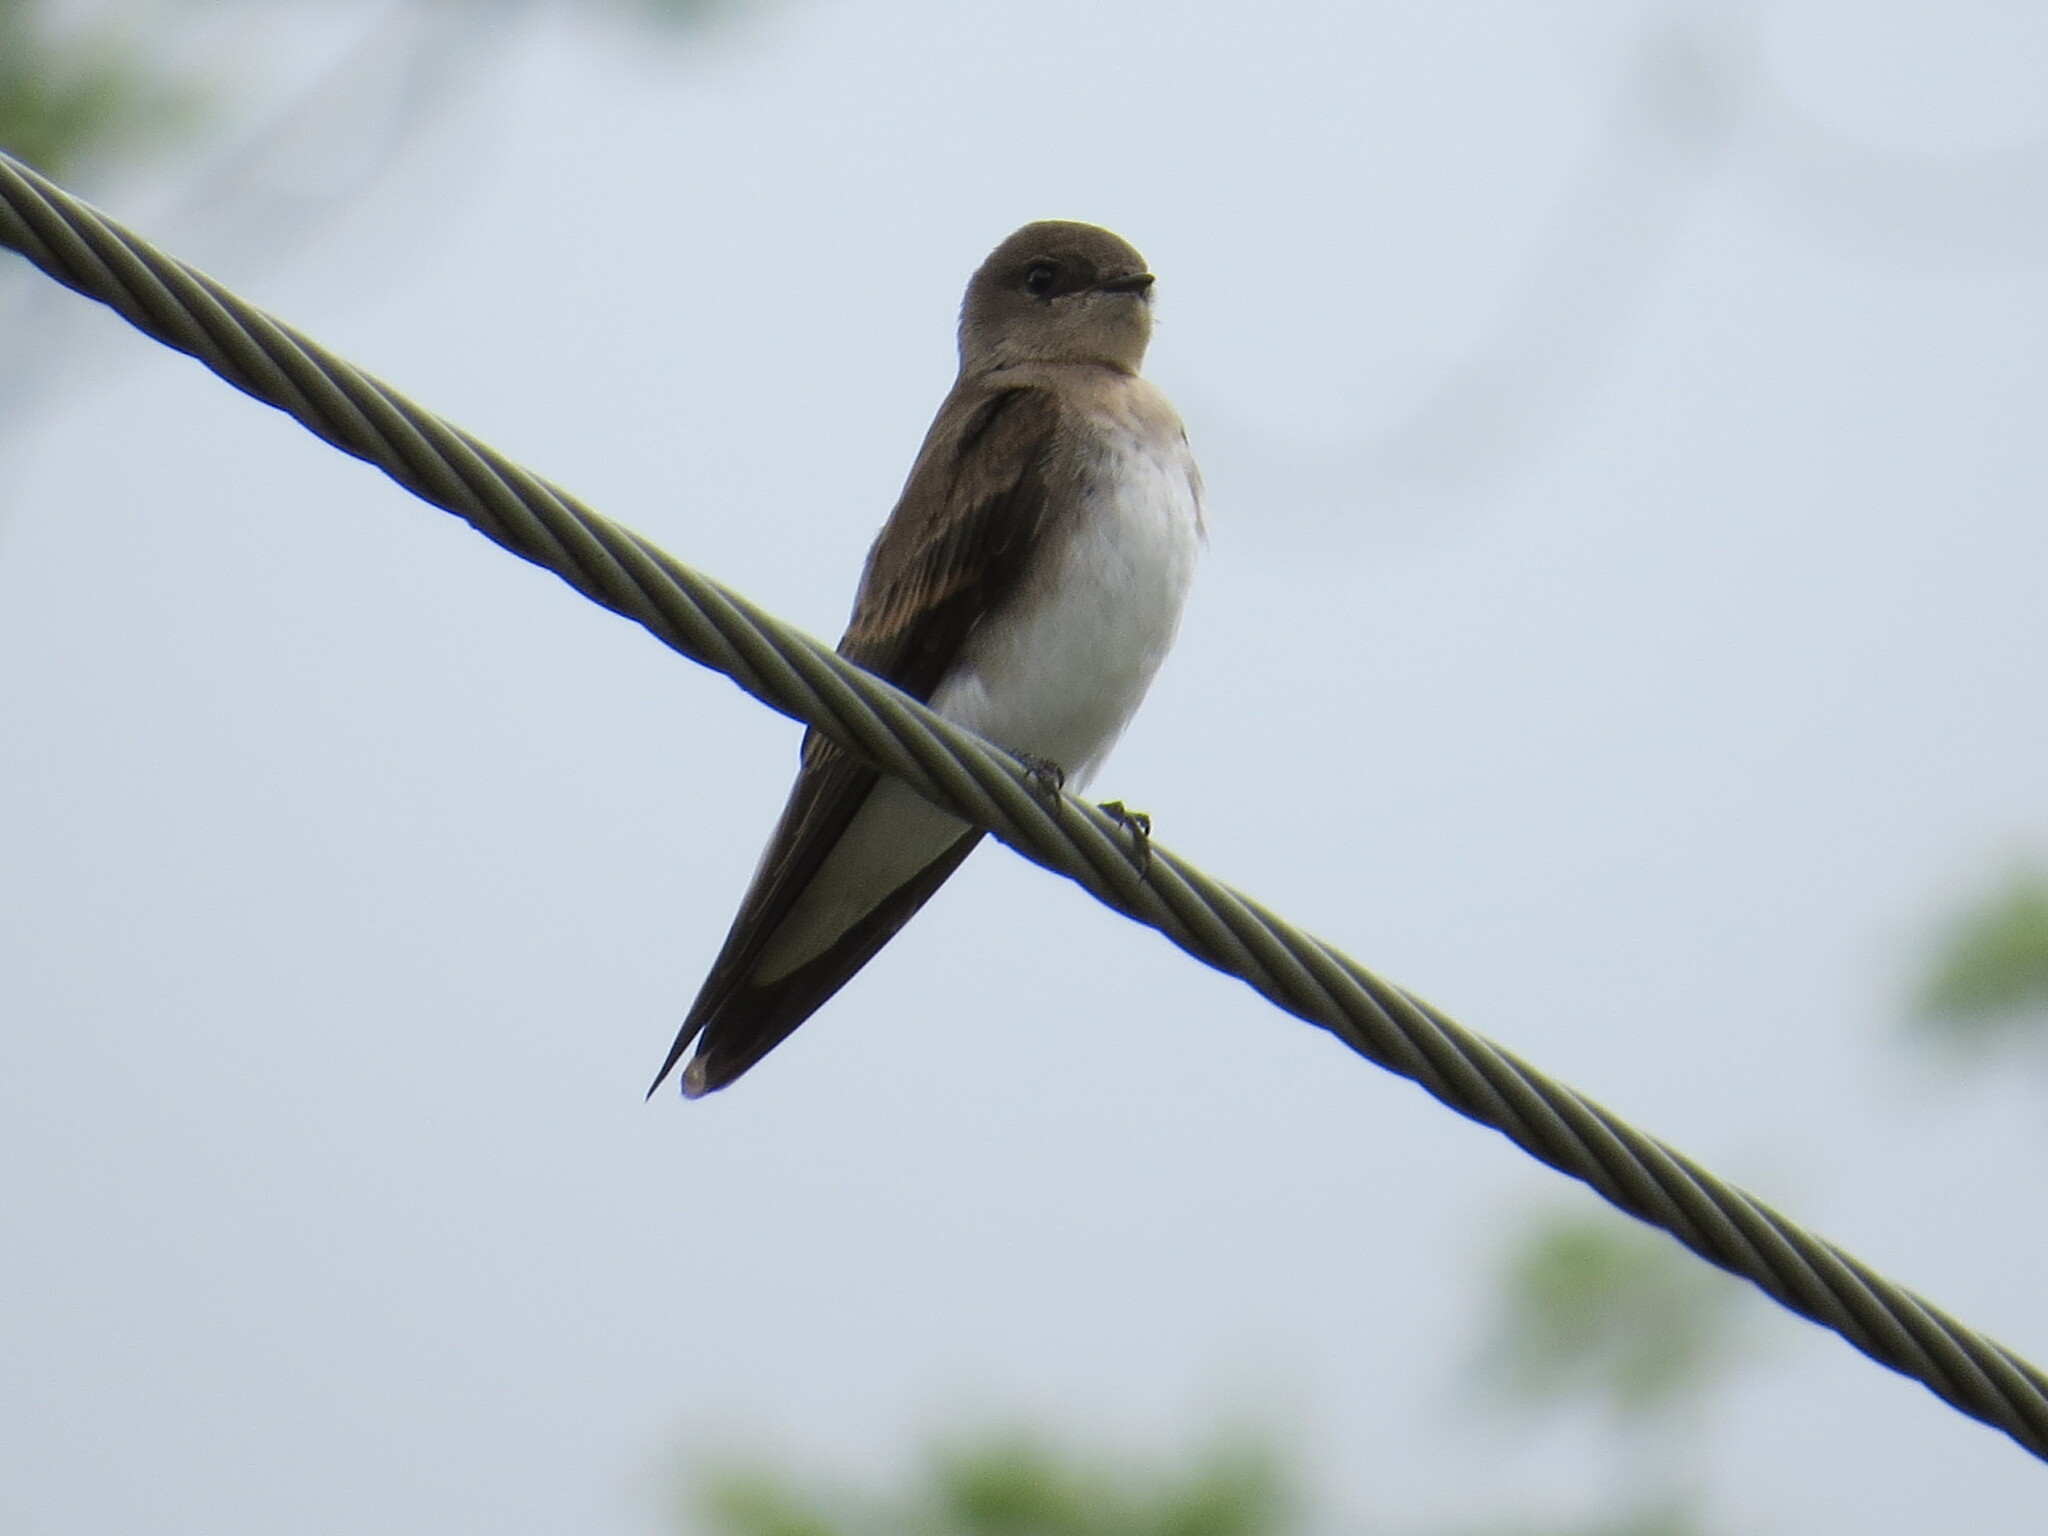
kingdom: Animalia
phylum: Chordata
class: Aves
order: Passeriformes
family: Hirundinidae
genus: Stelgidopteryx
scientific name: Stelgidopteryx serripennis
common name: Northern rough-winged swallow
